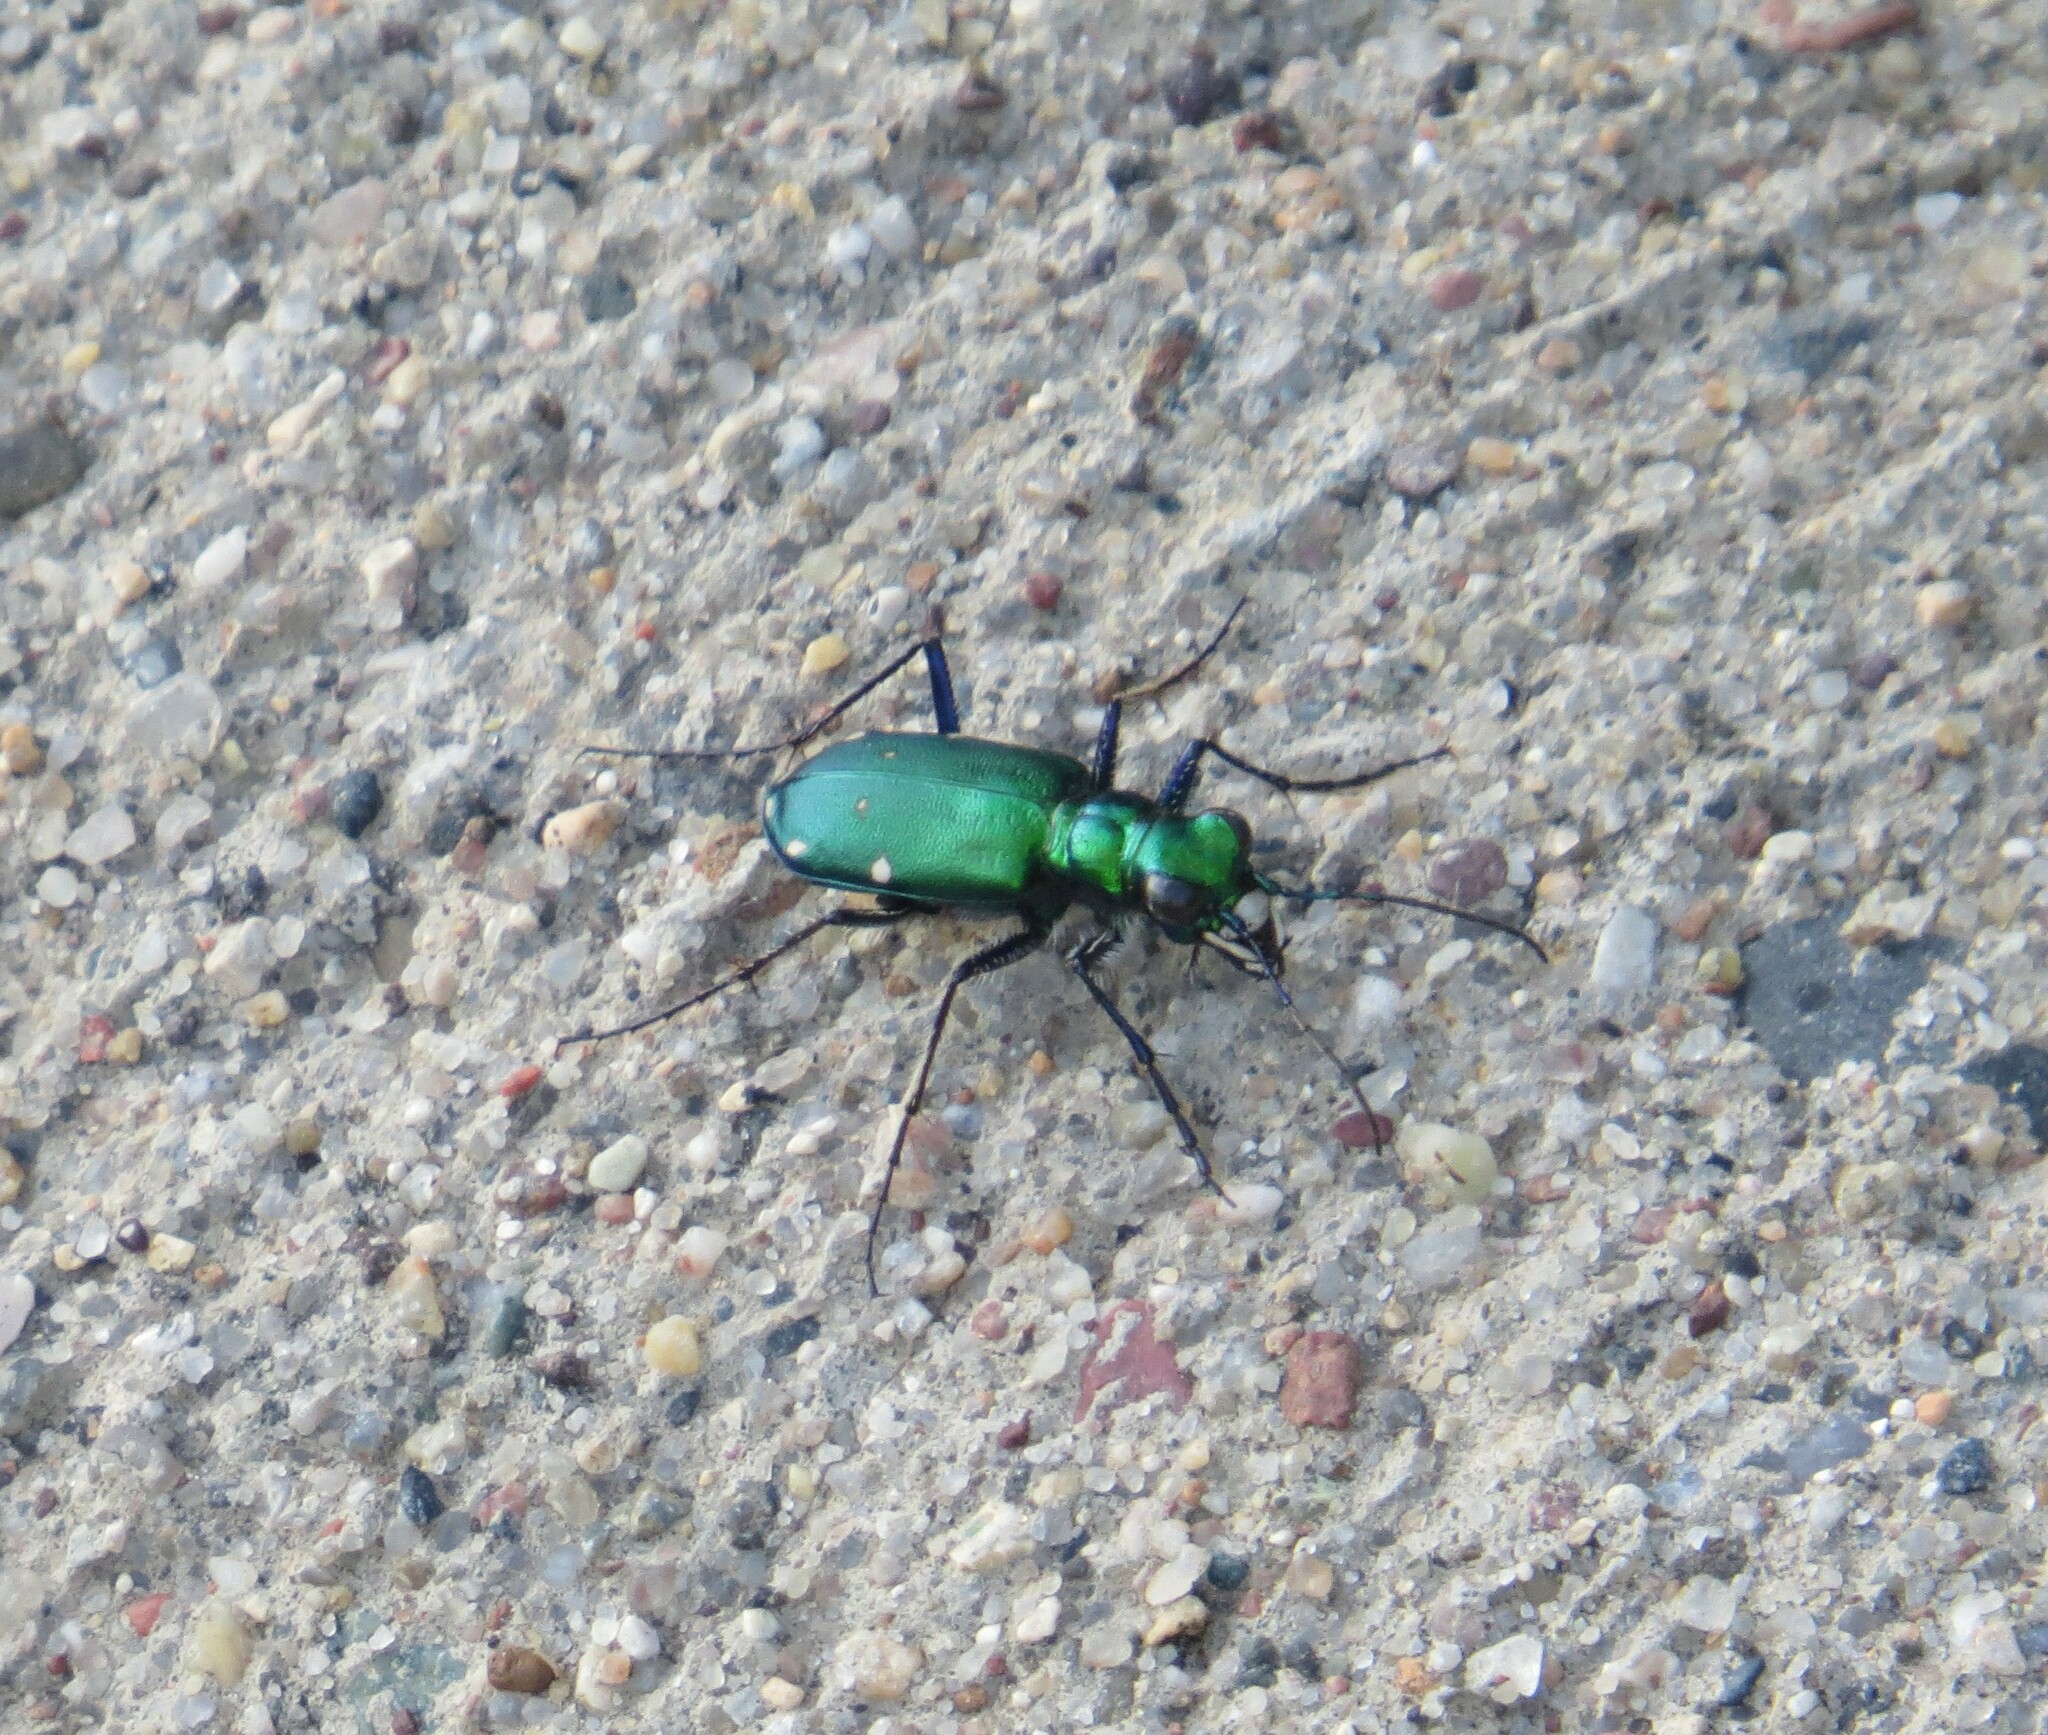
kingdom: Animalia
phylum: Arthropoda
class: Insecta
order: Coleoptera
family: Carabidae
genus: Cicindela
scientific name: Cicindela sexguttata
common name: Six-spotted tiger beetle
